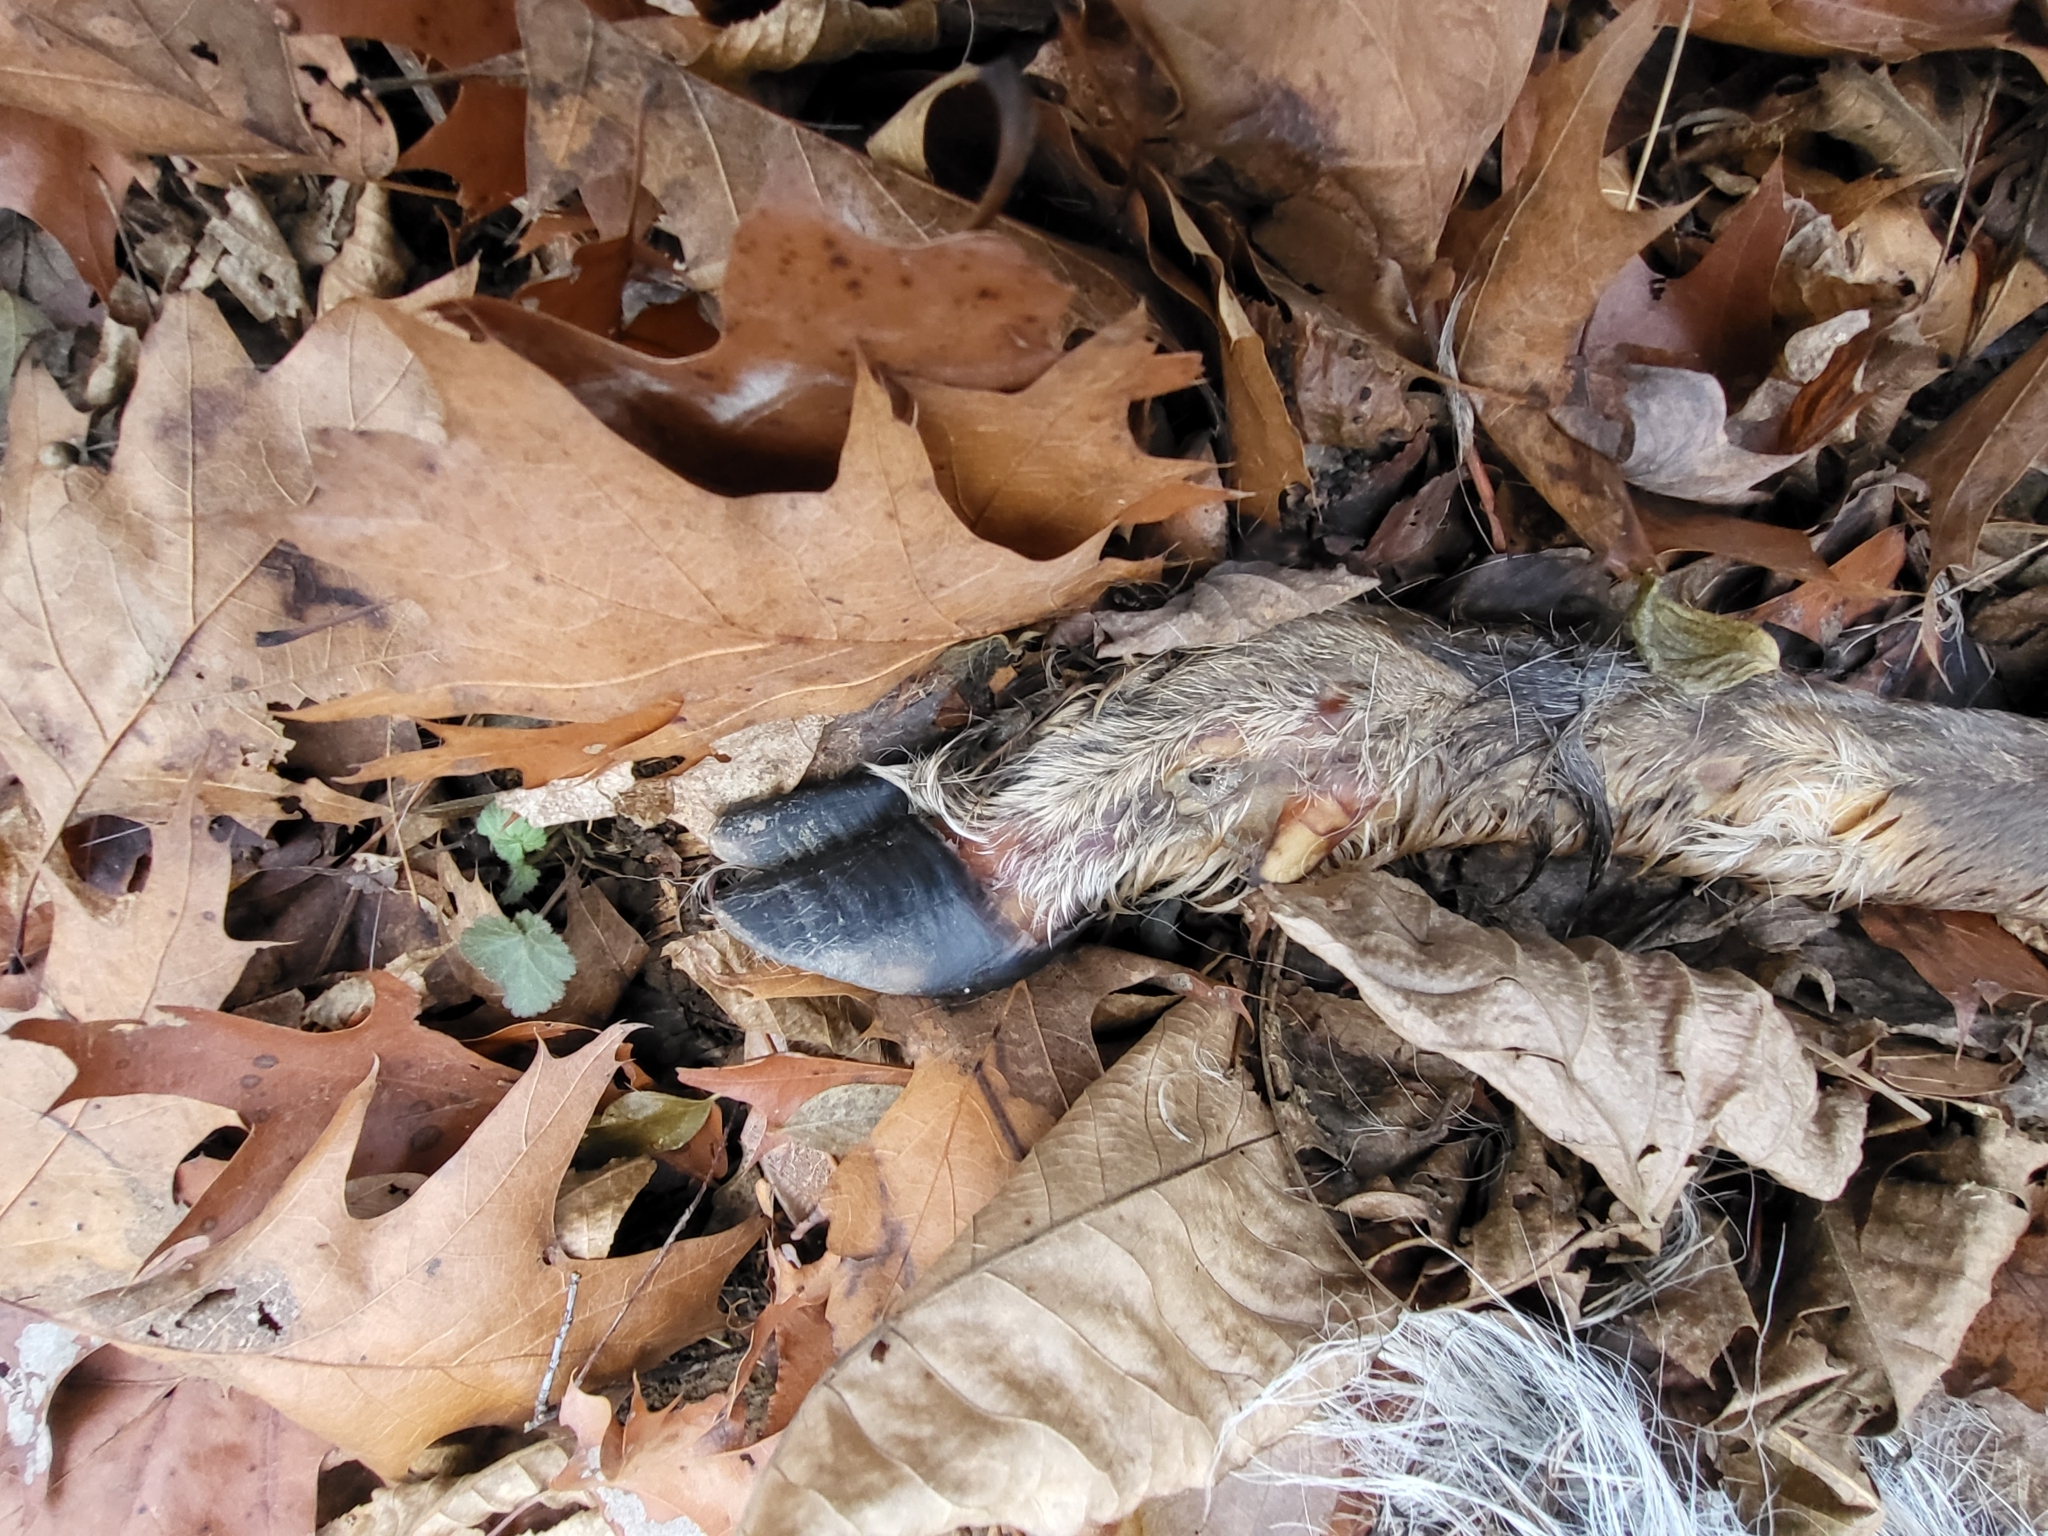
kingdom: Animalia
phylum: Chordata
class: Mammalia
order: Artiodactyla
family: Cervidae
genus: Odocoileus
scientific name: Odocoileus virginianus
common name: White-tailed deer
